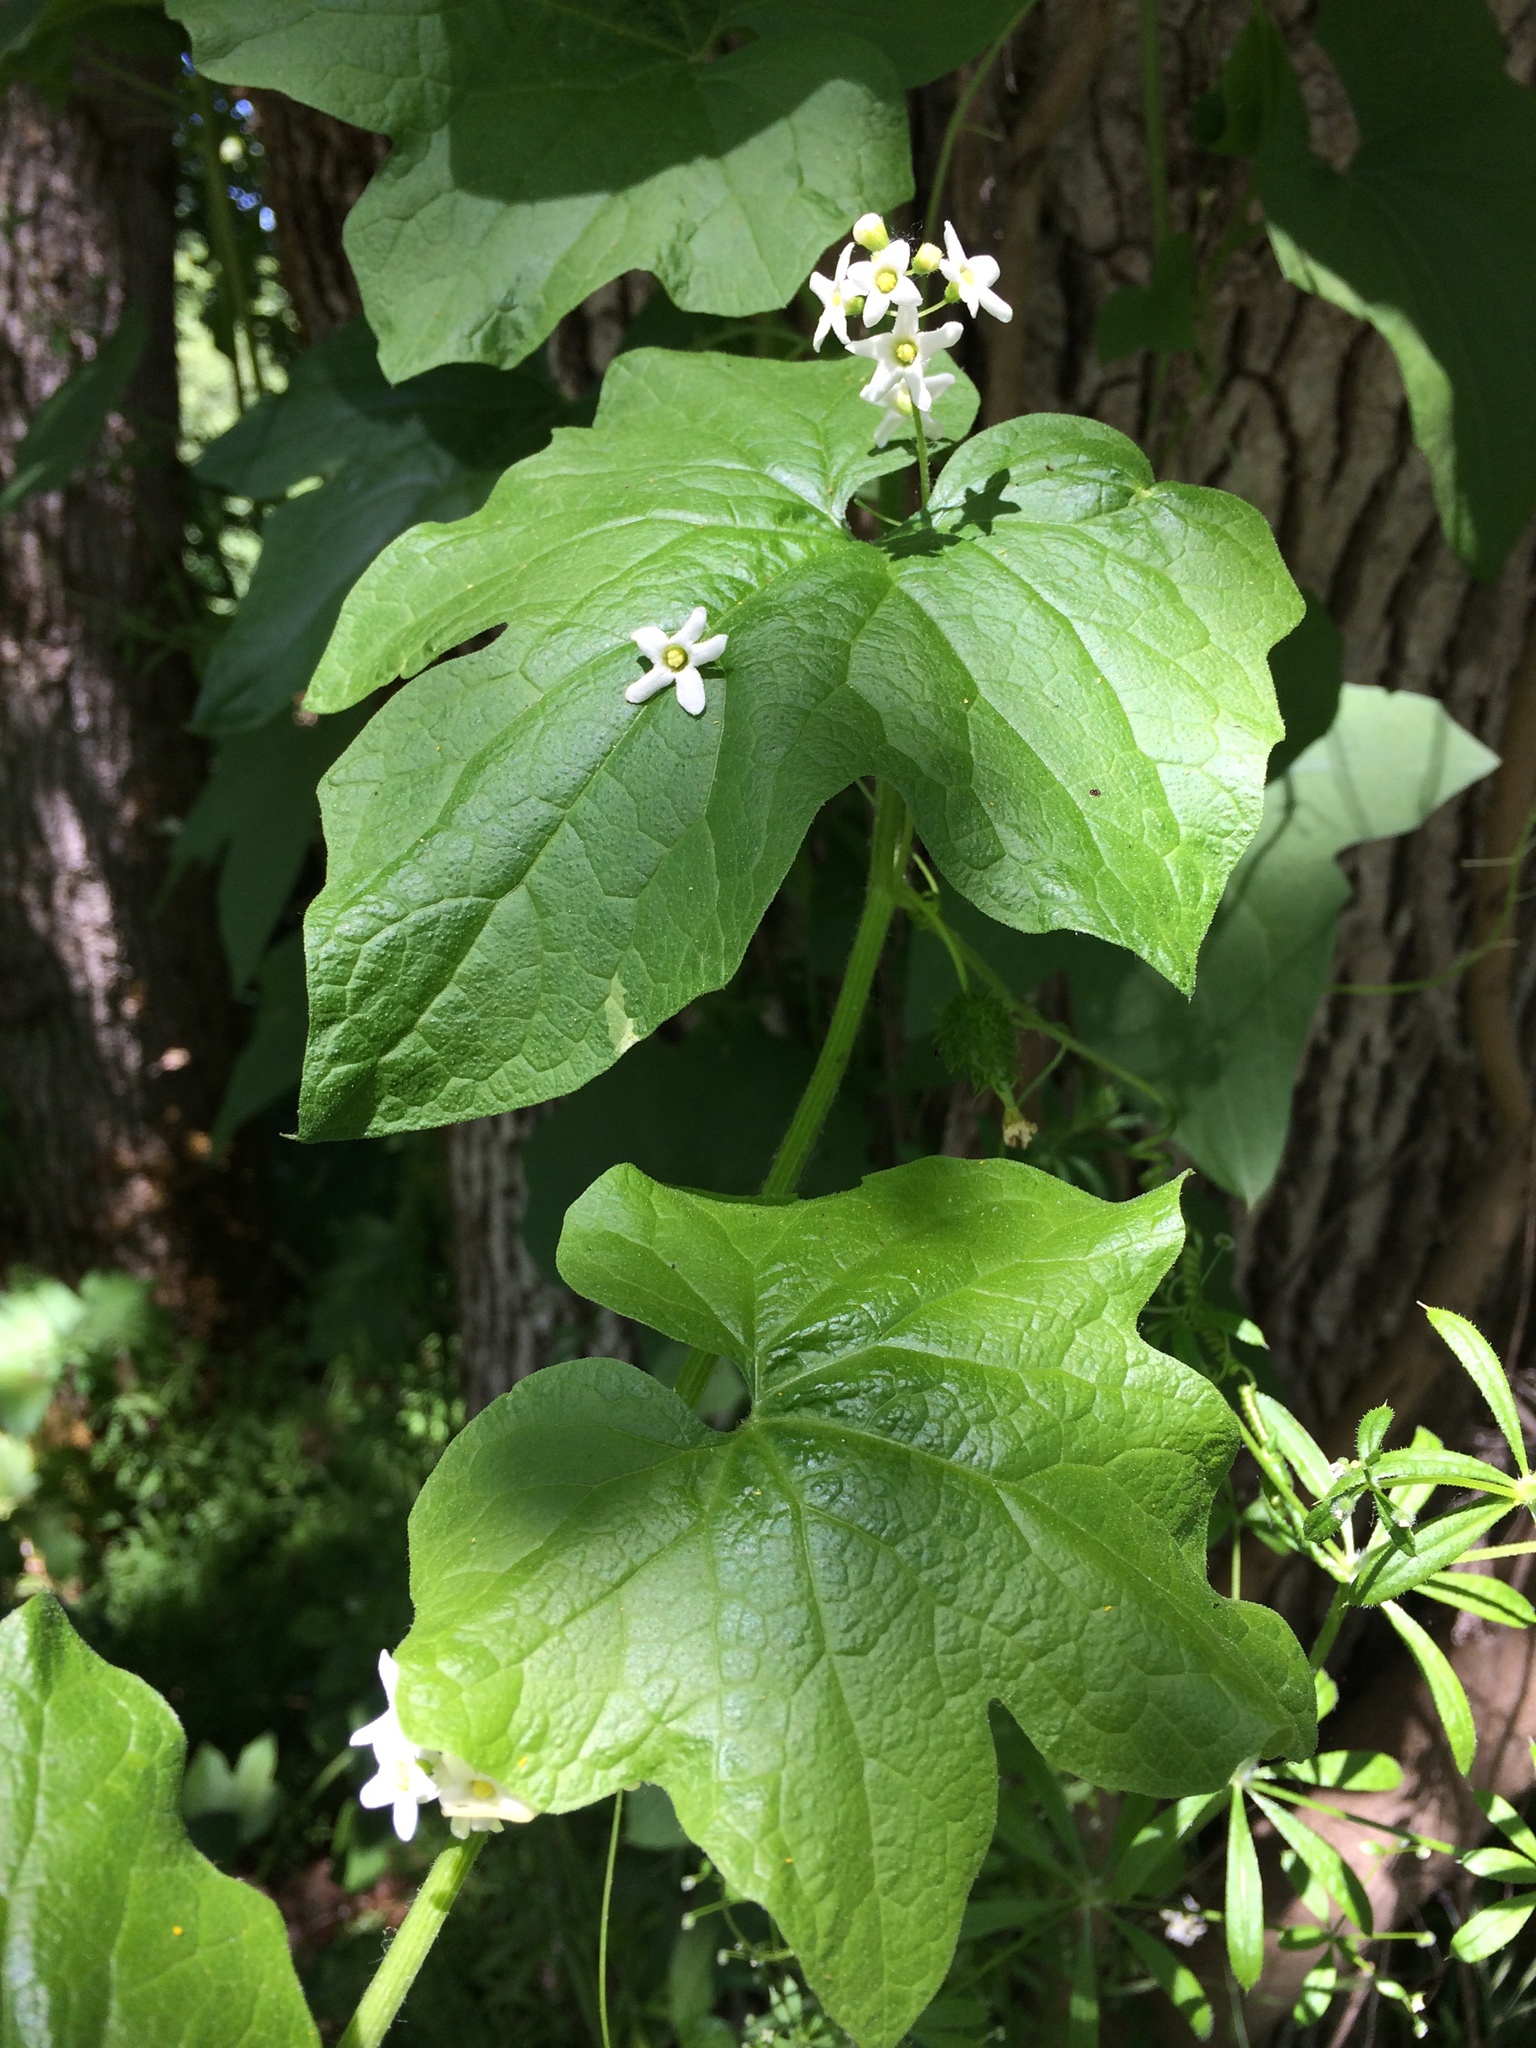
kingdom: Plantae
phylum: Tracheophyta
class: Magnoliopsida
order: Cucurbitales
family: Cucurbitaceae
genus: Marah
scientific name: Marah oregana
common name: Coastal manroot
